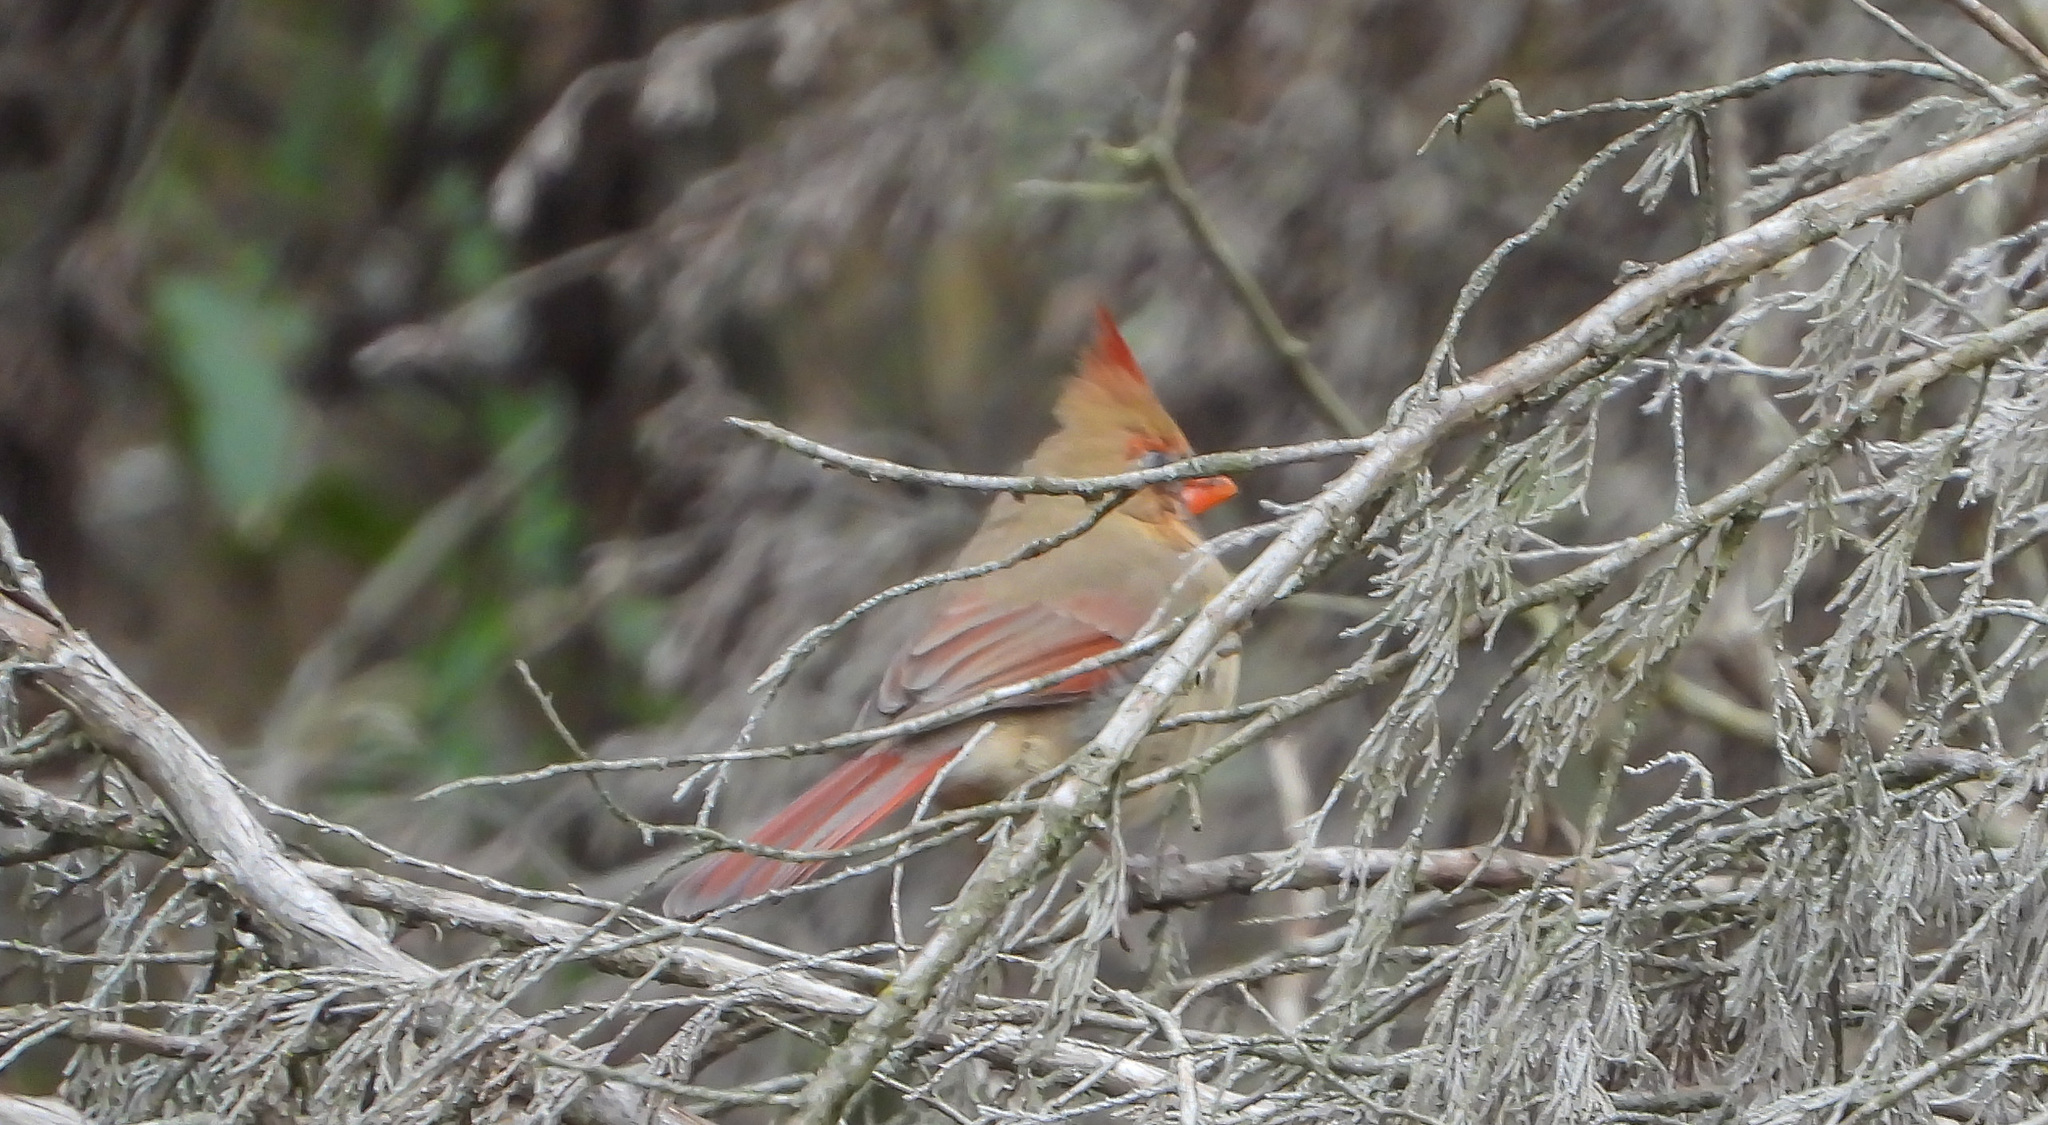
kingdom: Animalia
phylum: Chordata
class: Aves
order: Passeriformes
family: Cardinalidae
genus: Cardinalis
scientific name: Cardinalis cardinalis
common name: Northern cardinal
